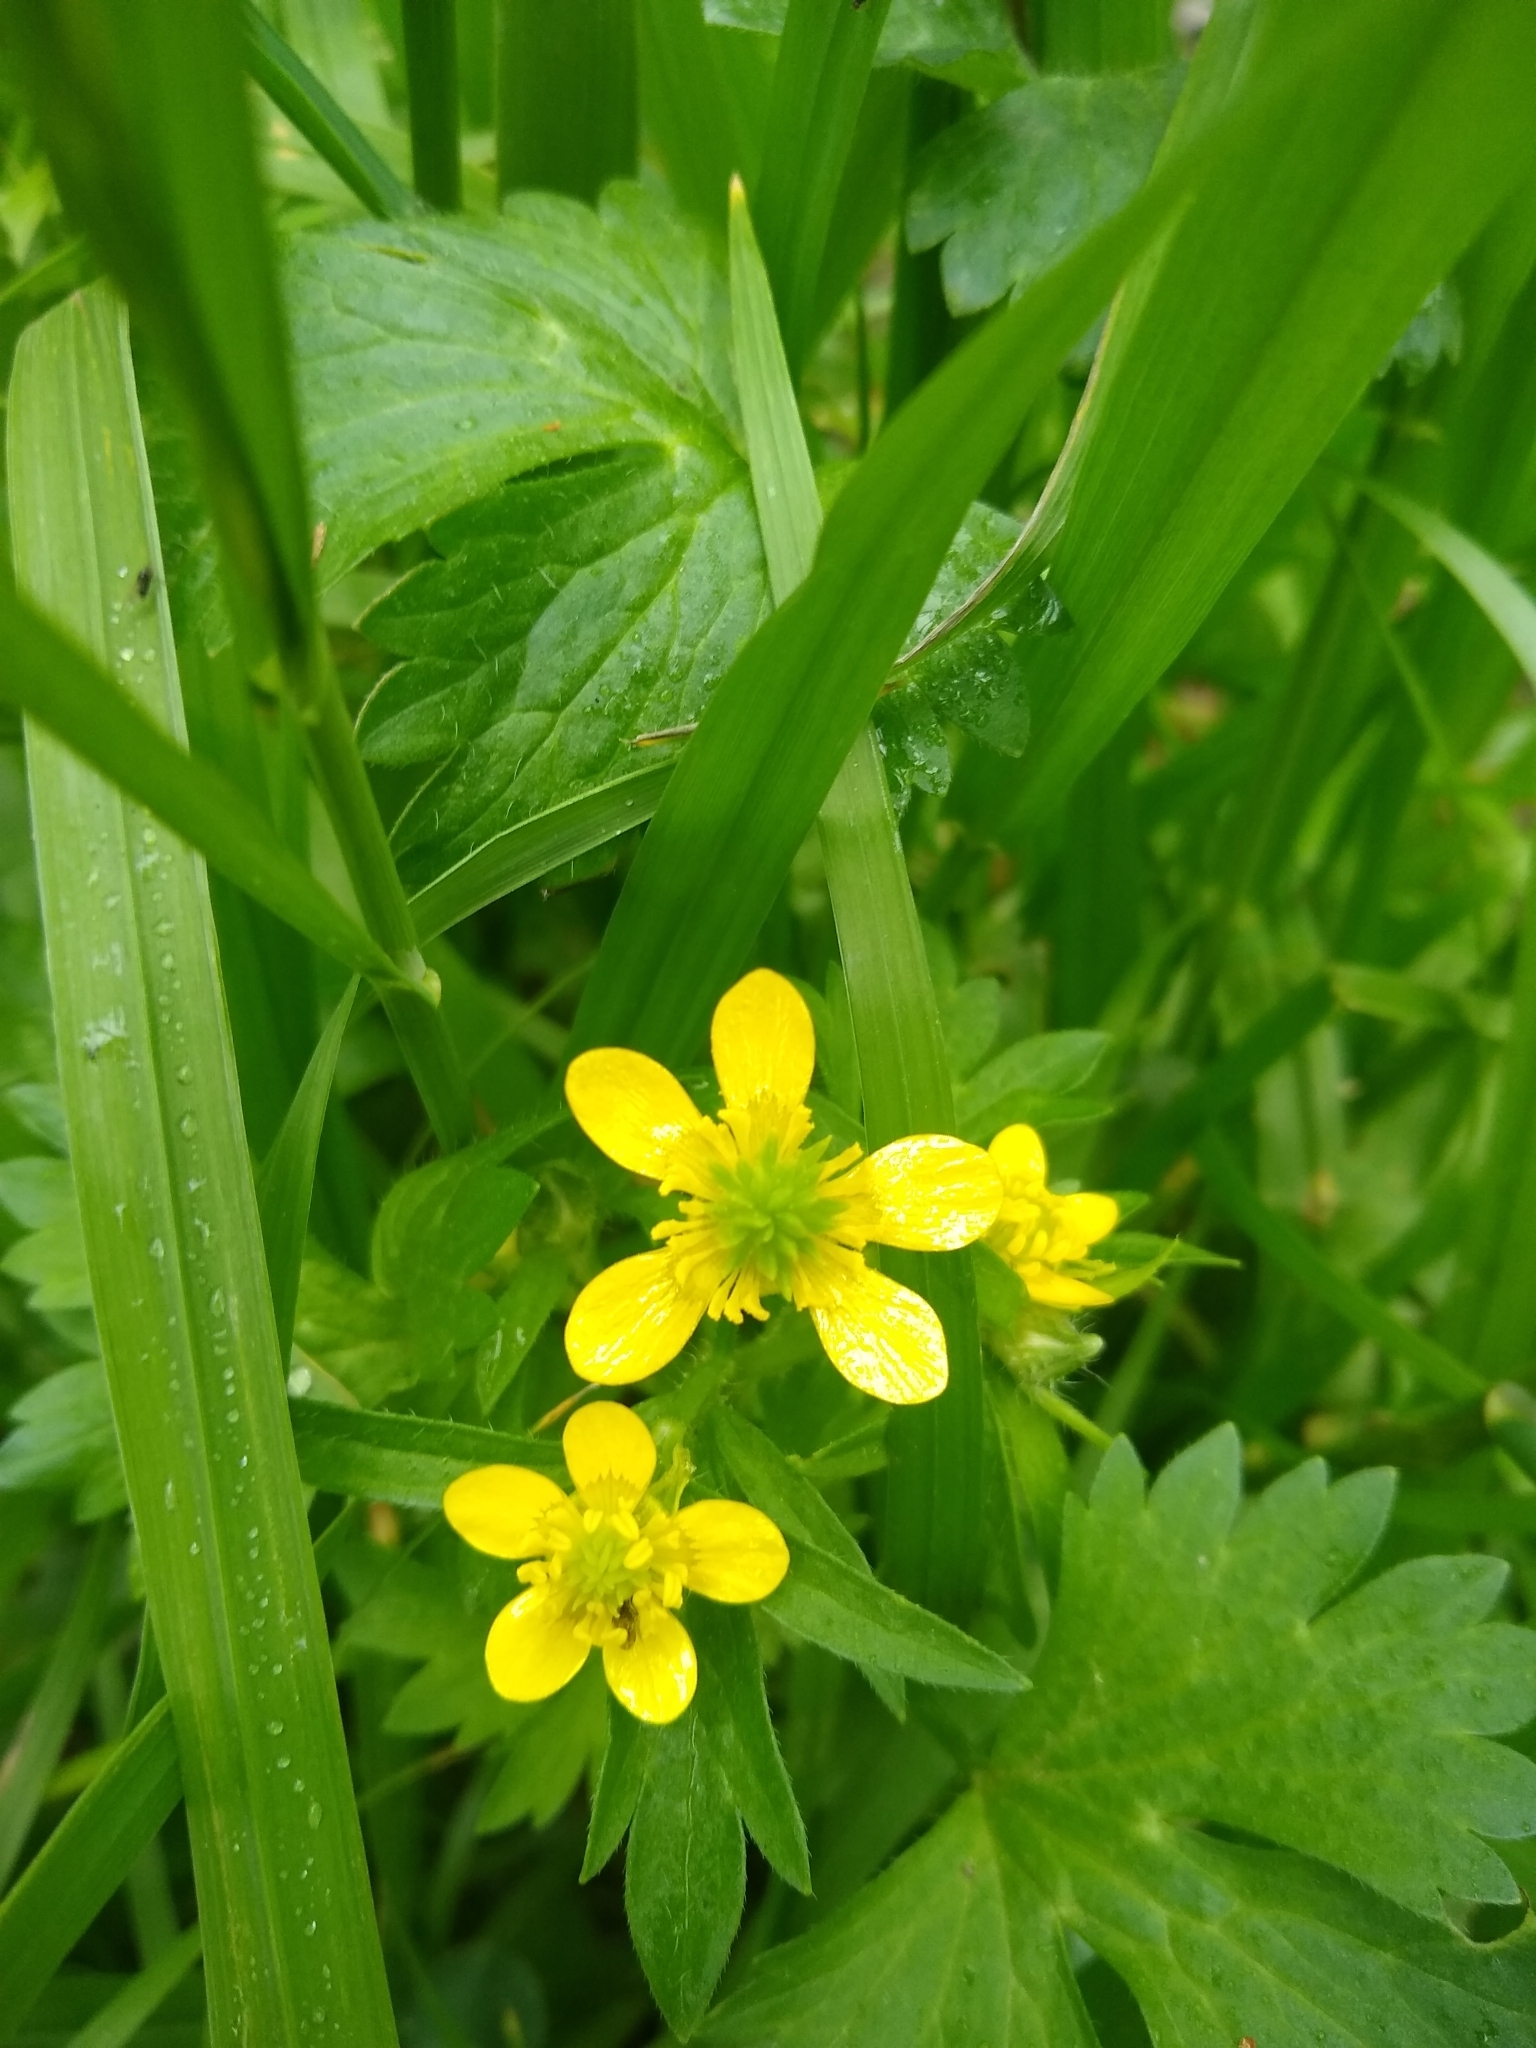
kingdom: Plantae
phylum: Tracheophyta
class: Magnoliopsida
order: Ranunculales
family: Ranunculaceae
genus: Ranunculus
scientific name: Ranunculus muricatus
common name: Rough-fruited buttercup
